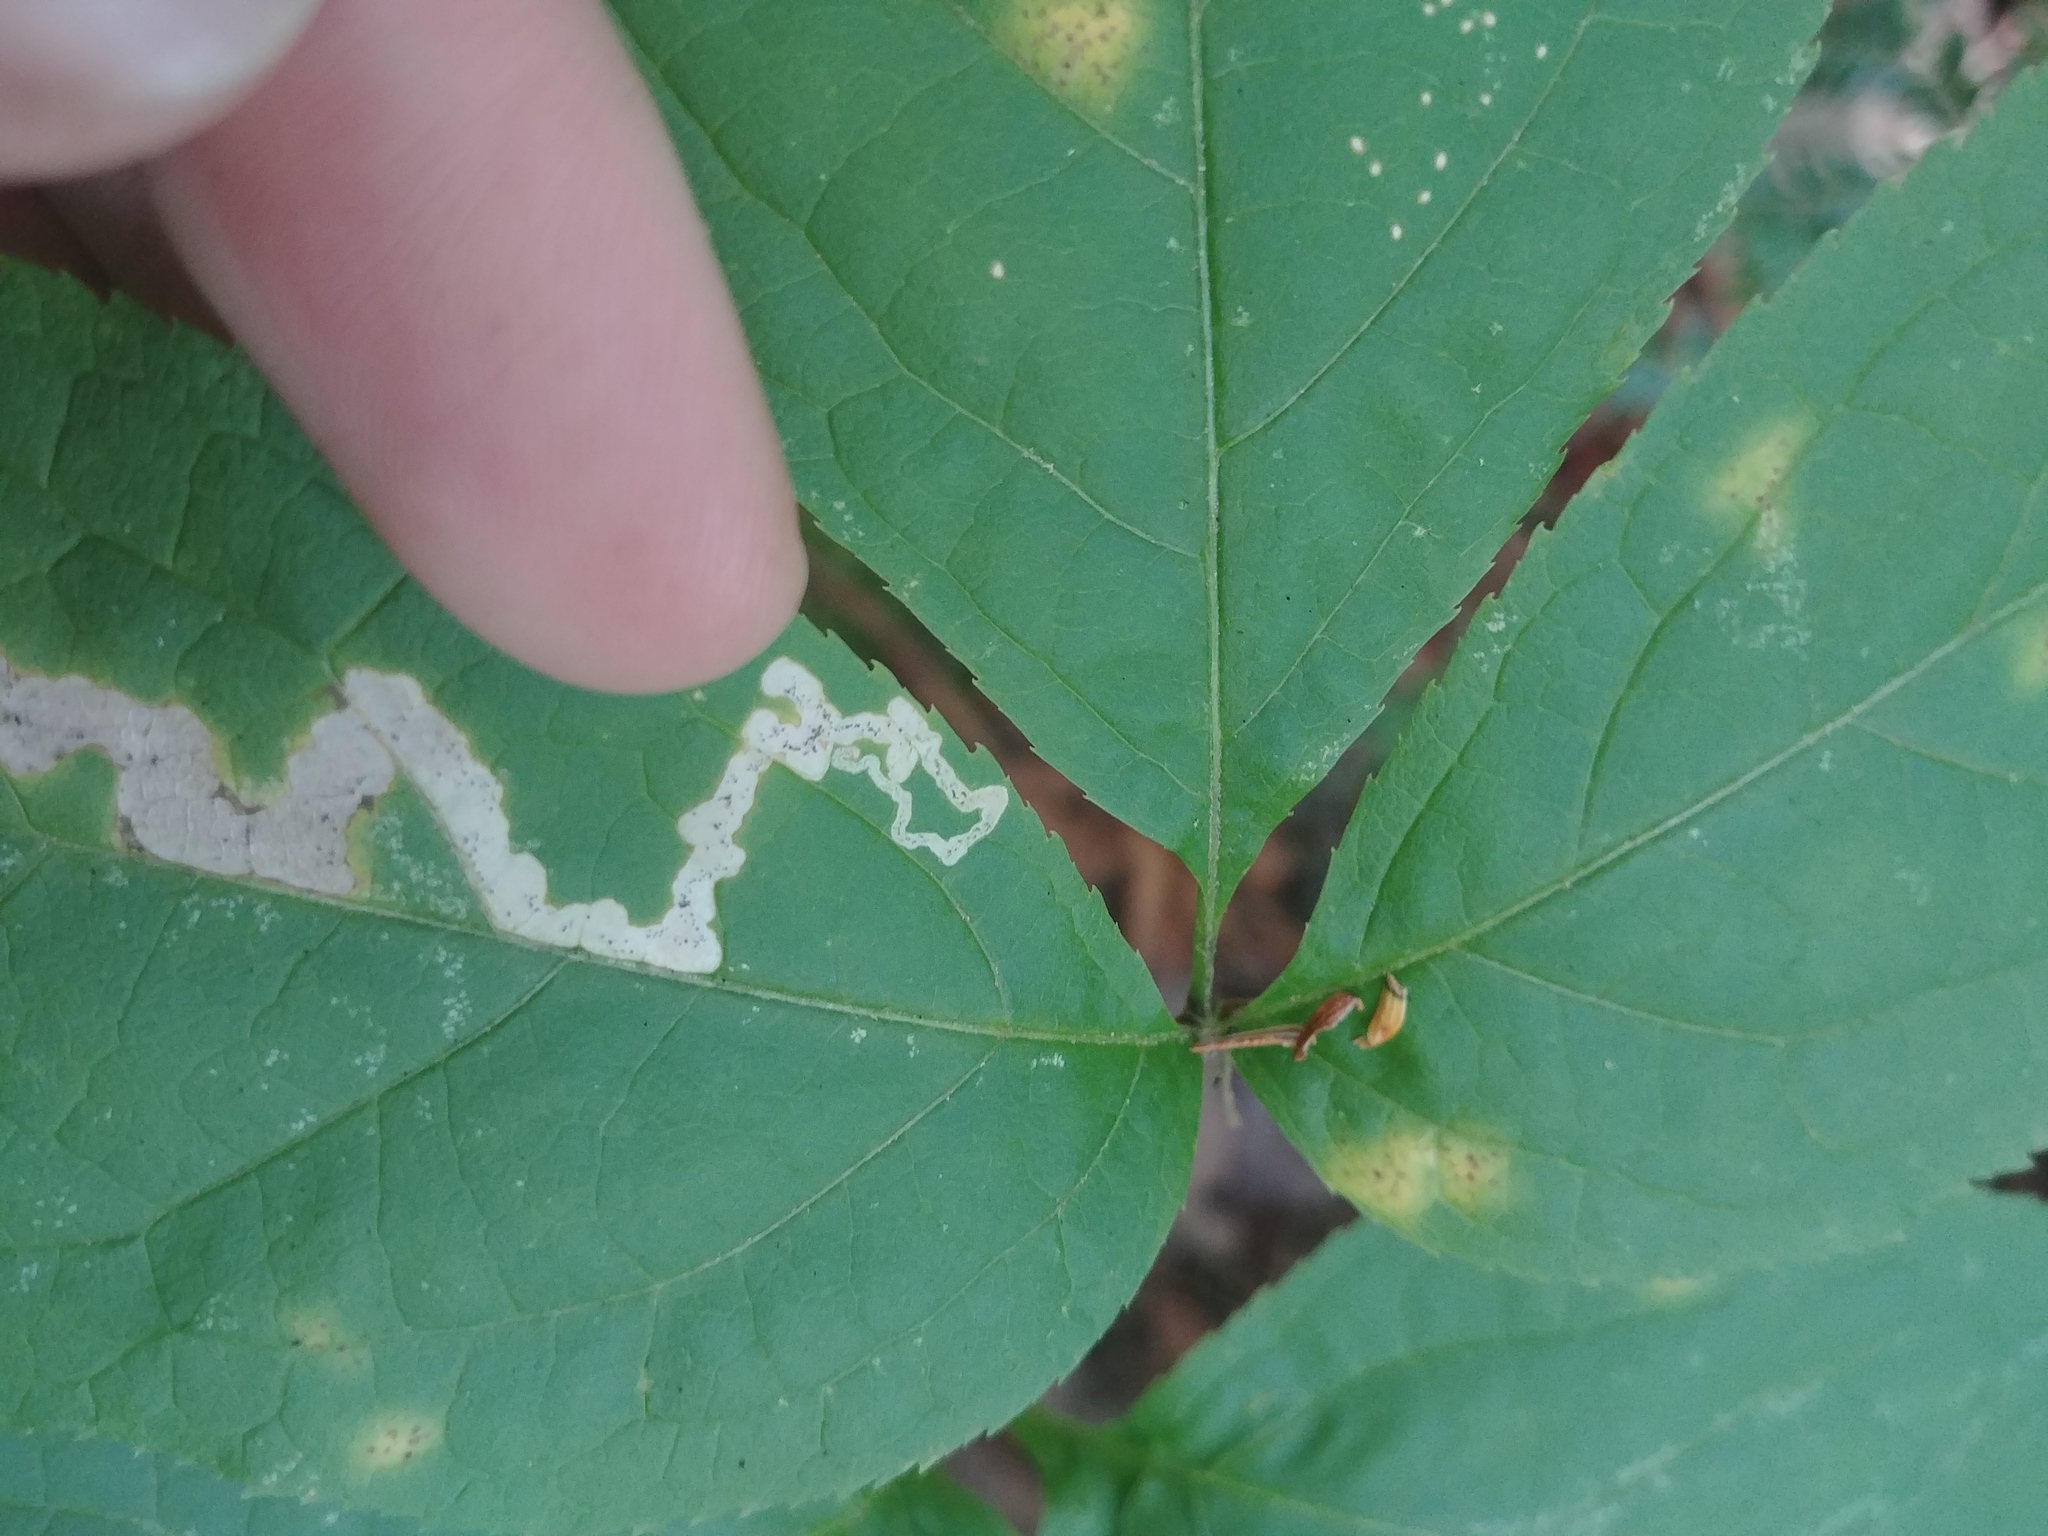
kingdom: Animalia
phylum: Arthropoda
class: Insecta
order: Diptera
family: Agromyzidae
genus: Phytomyza
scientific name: Phytomyza aralivora
